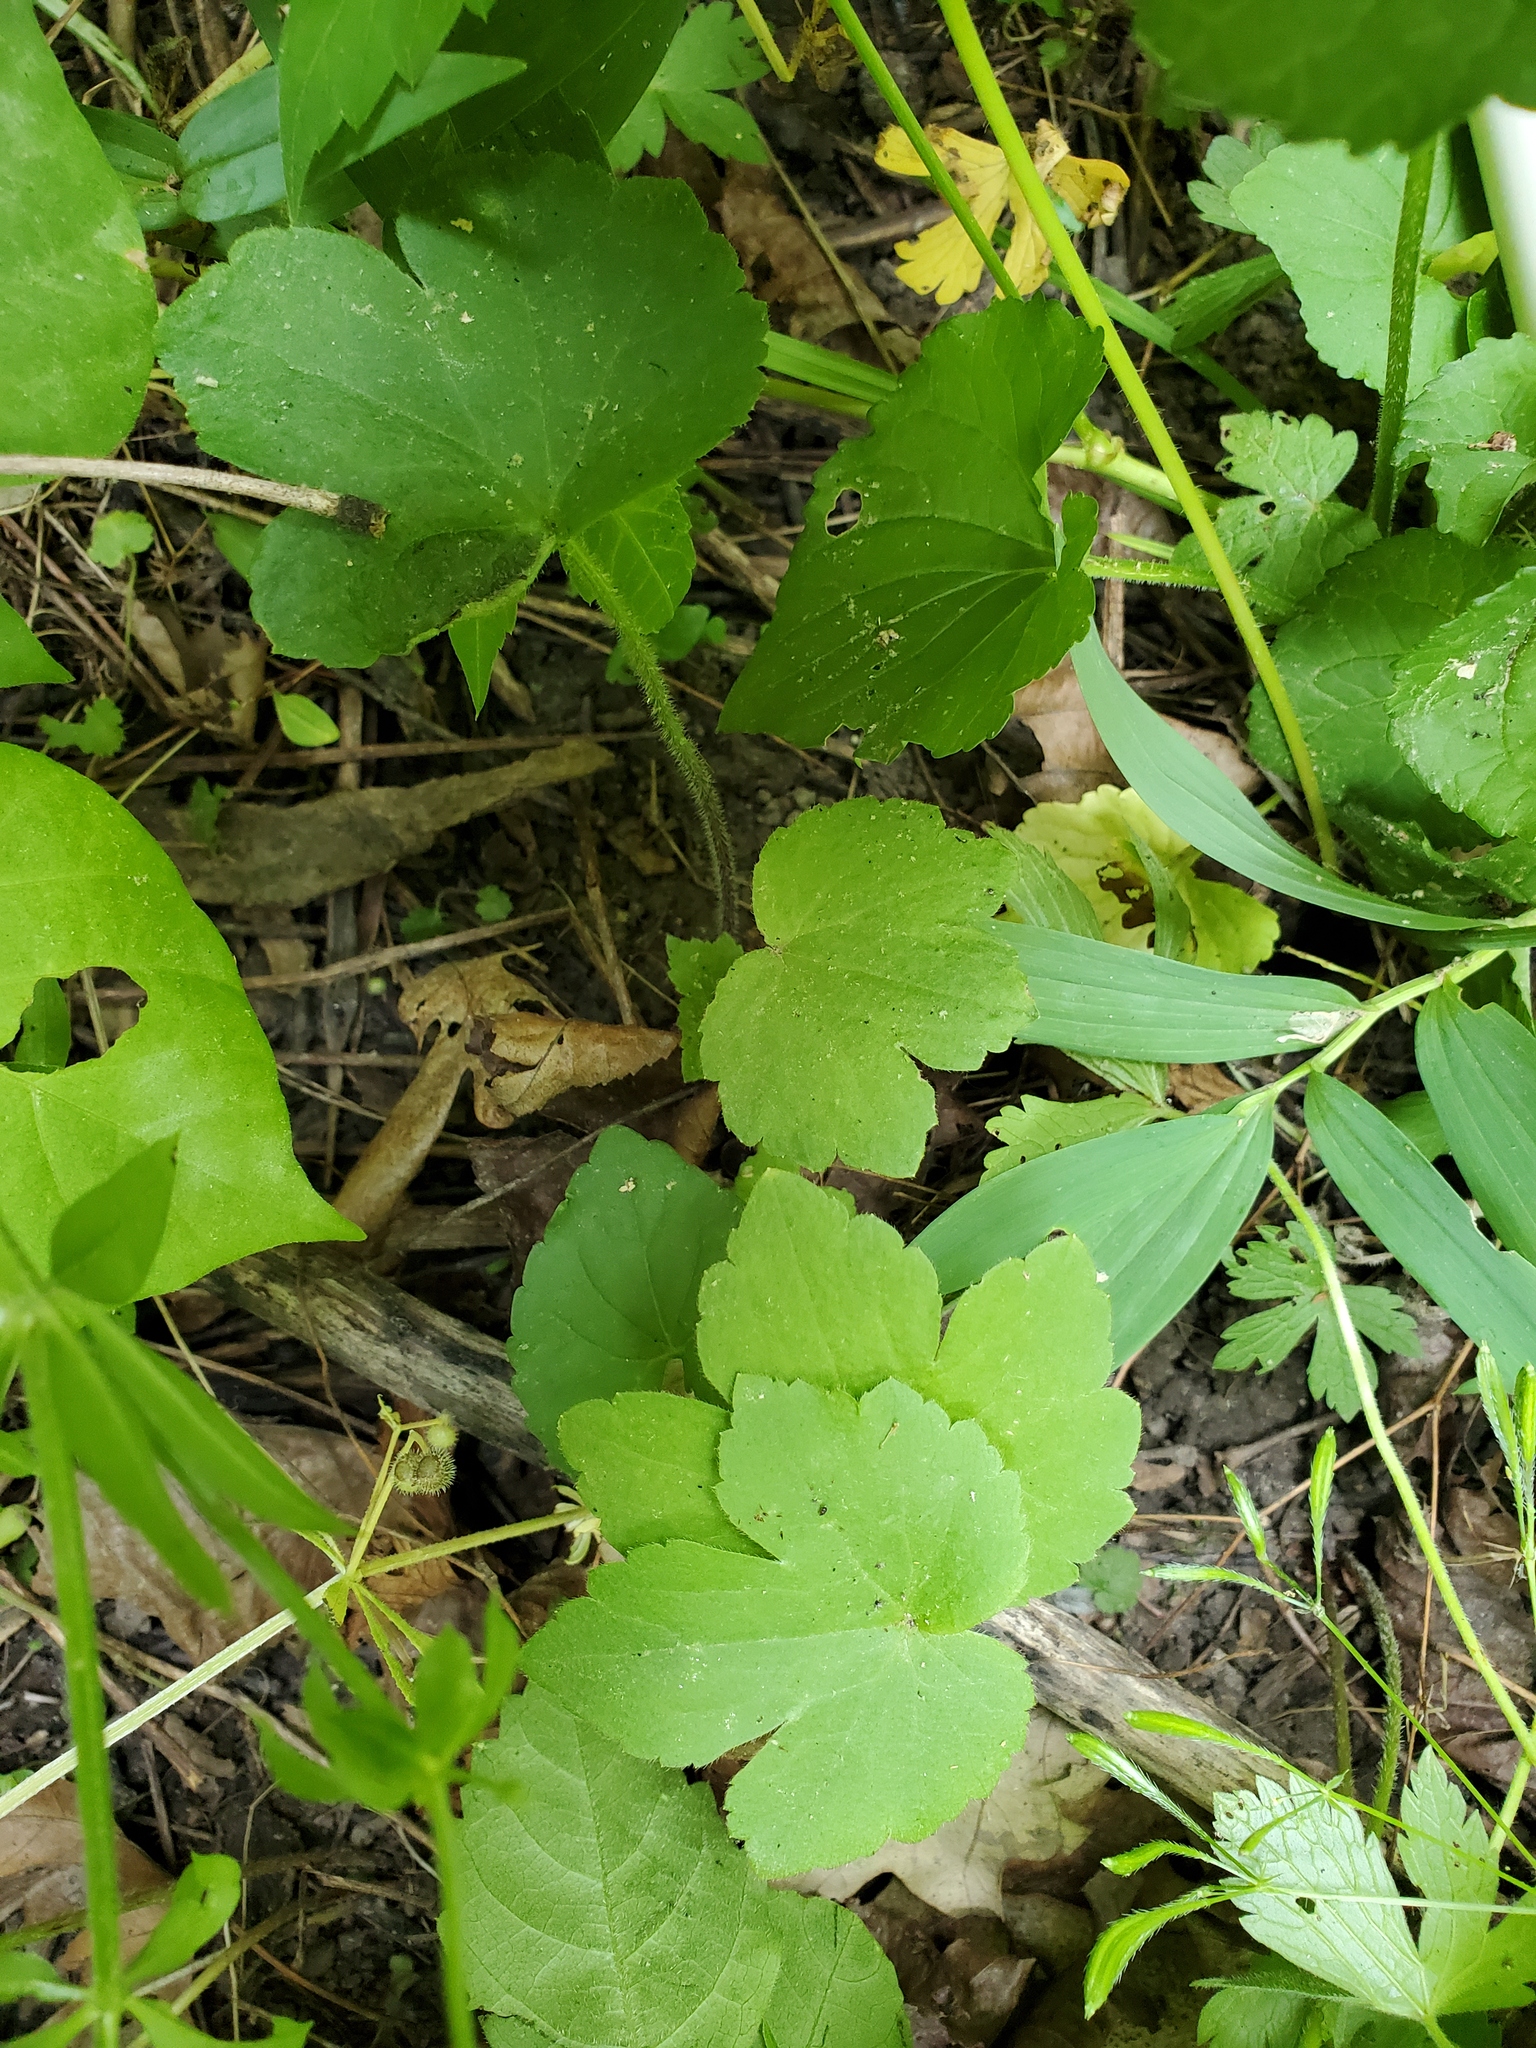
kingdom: Plantae
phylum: Tracheophyta
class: Magnoliopsida
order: Ranunculales
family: Ranunculaceae
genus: Ranunculus
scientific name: Ranunculus recurvatus
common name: Blisterwort
